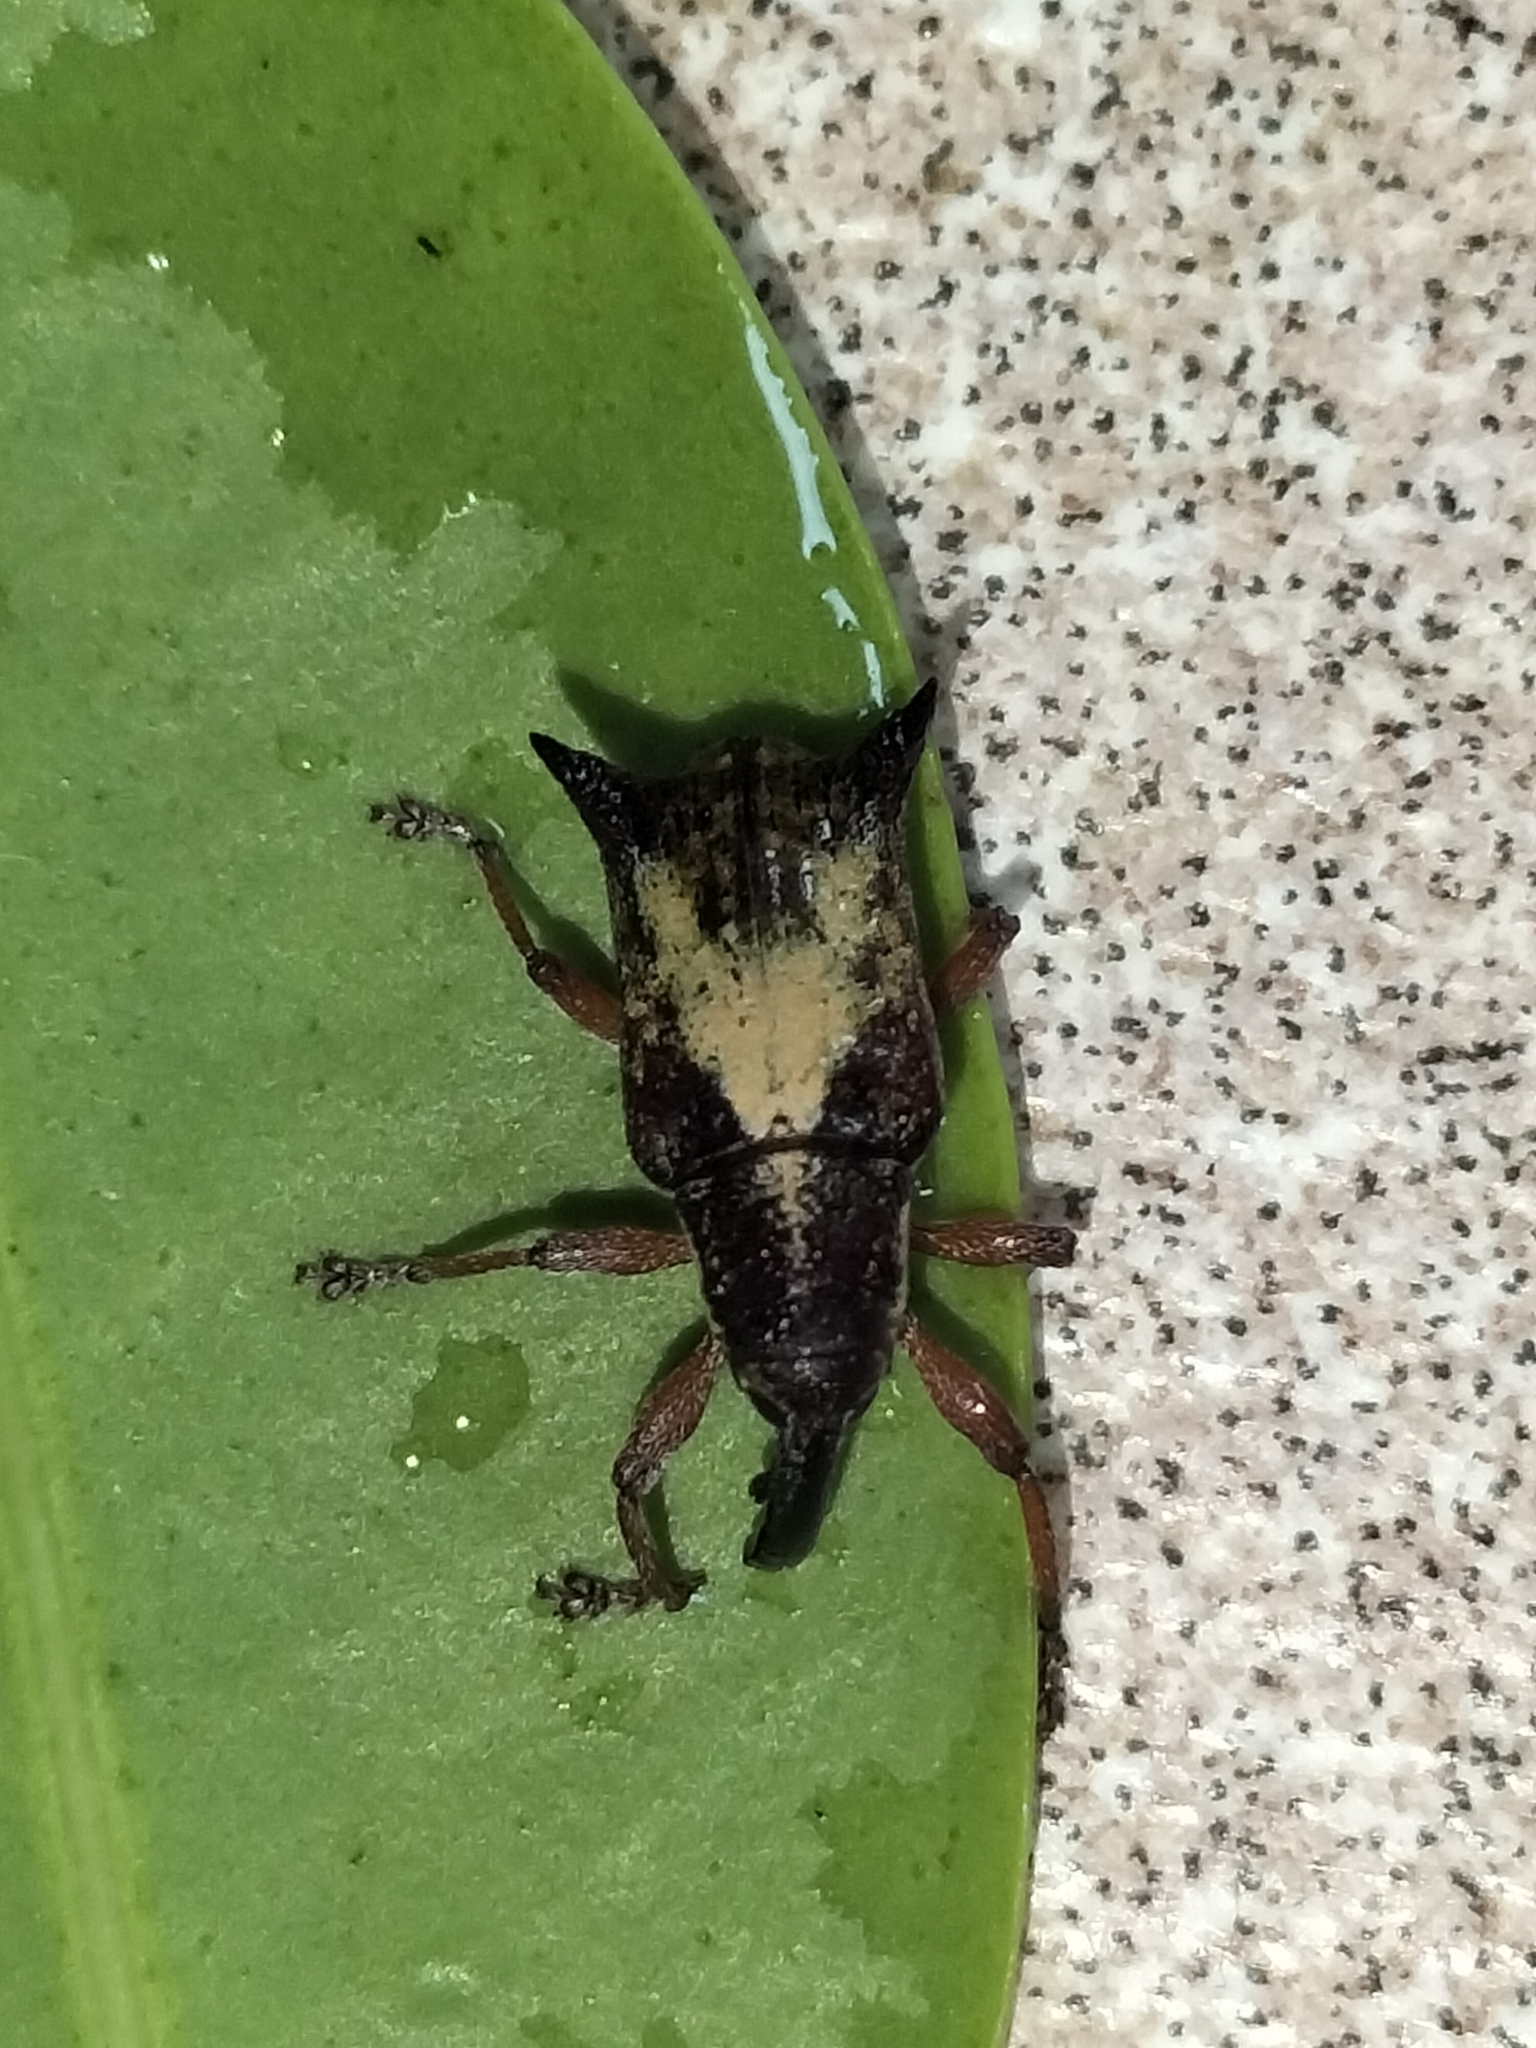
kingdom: Animalia
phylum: Arthropoda
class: Insecta
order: Coleoptera
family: Curculionidae
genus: Myllorhinus
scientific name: Myllorhinus
